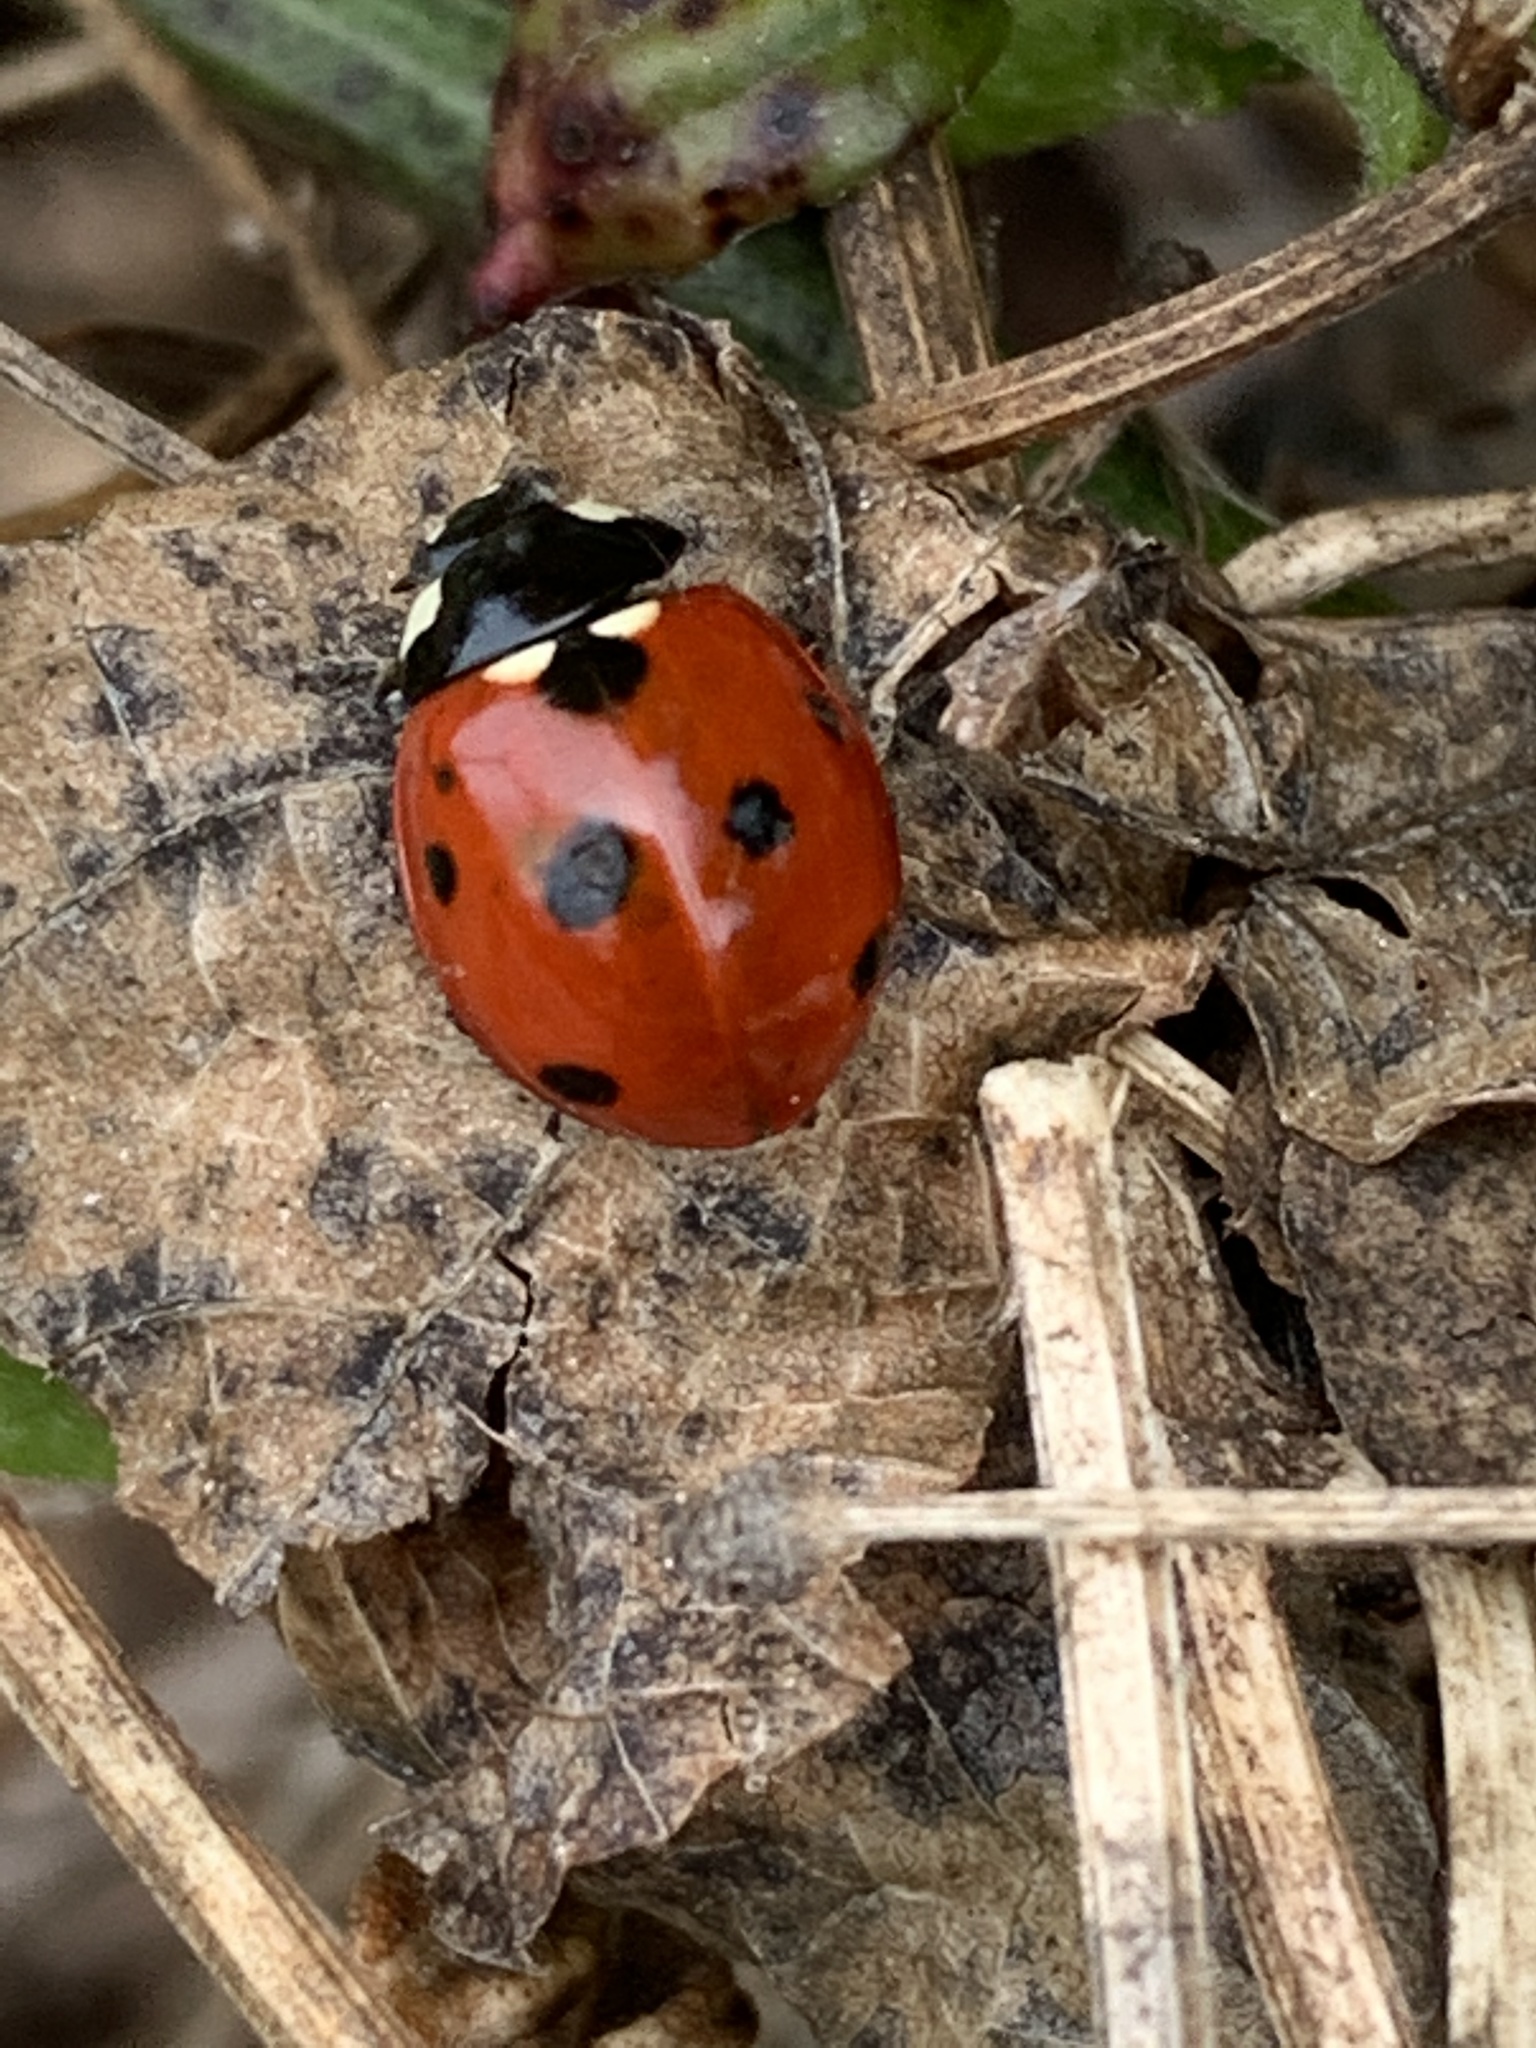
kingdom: Animalia
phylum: Arthropoda
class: Insecta
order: Coleoptera
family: Coccinellidae
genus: Coccinella
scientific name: Coccinella septempunctata
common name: Sevenspotted lady beetle
